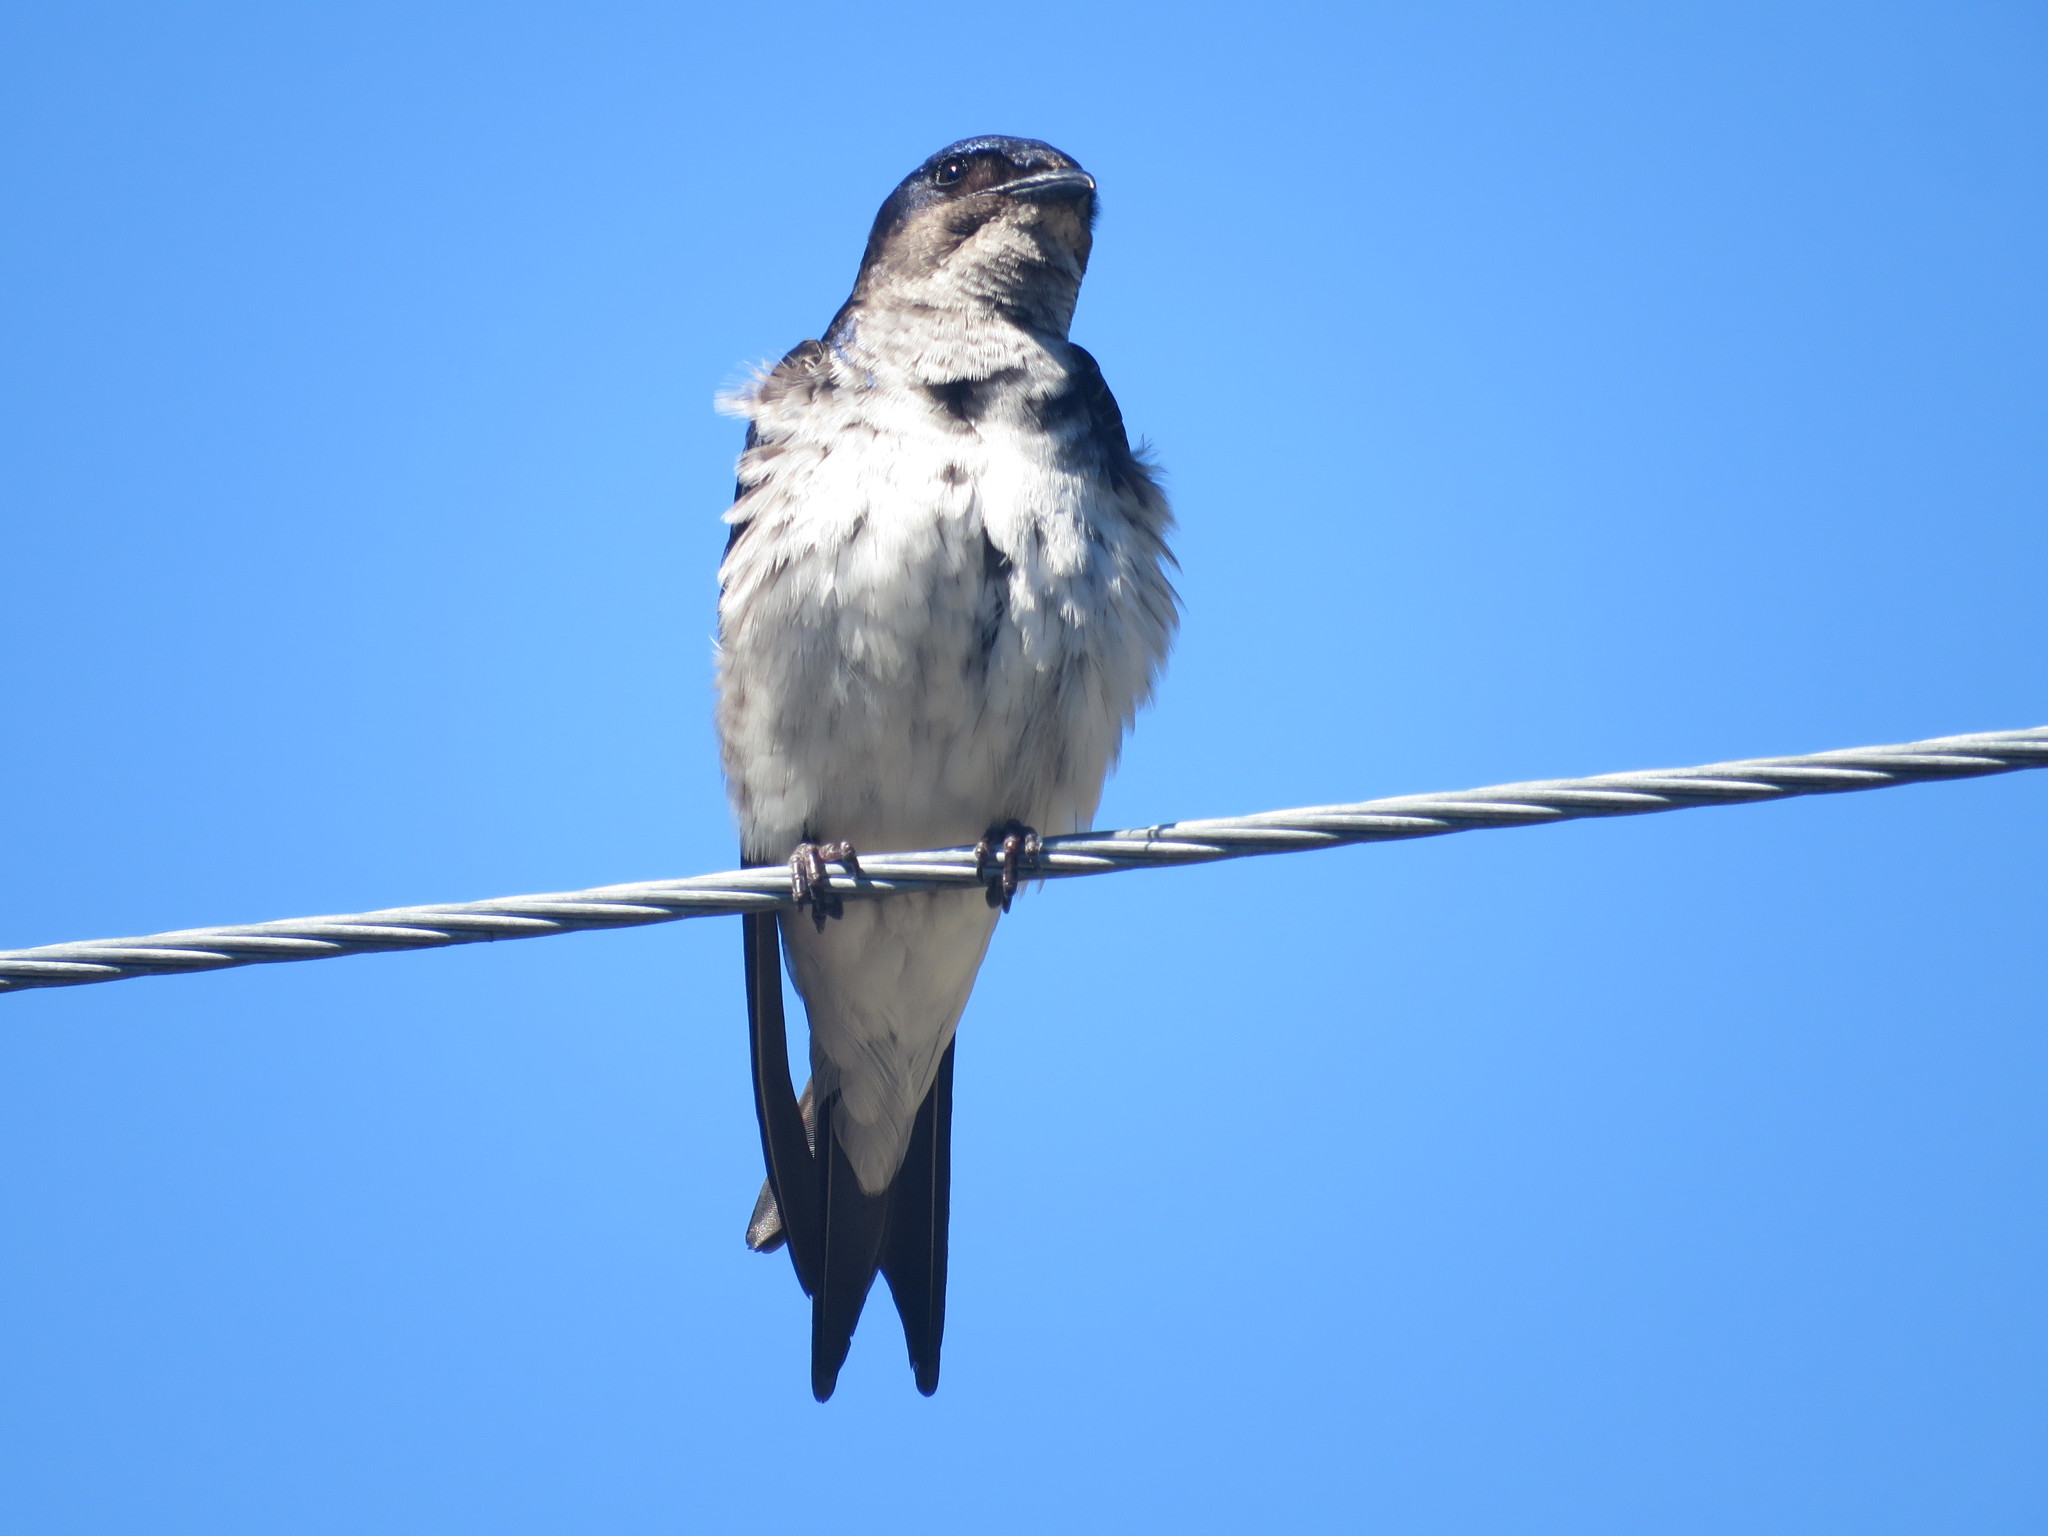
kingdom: Animalia
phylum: Chordata
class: Aves
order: Passeriformes
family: Hirundinidae
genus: Progne
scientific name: Progne chalybea
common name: Grey-breasted martin
